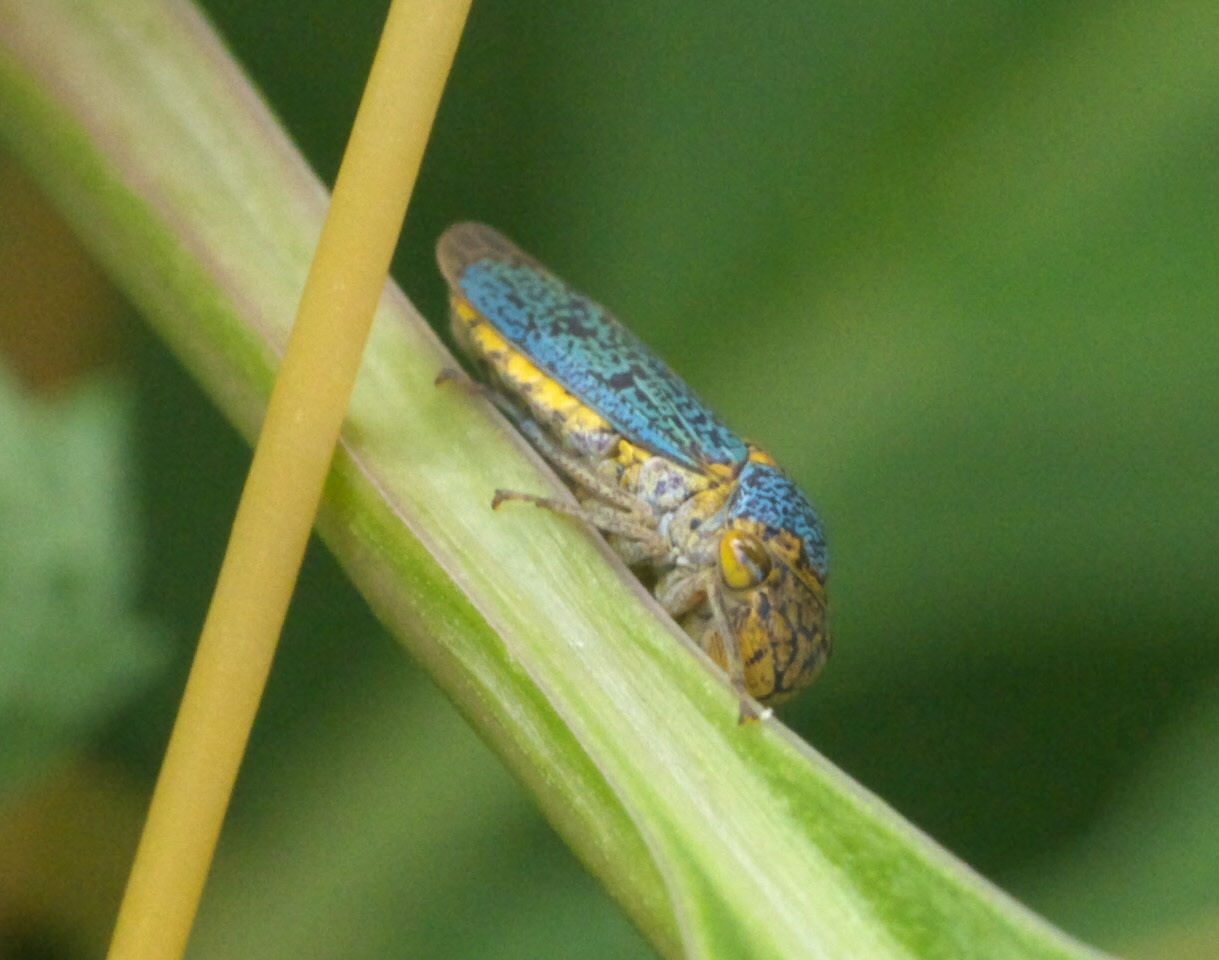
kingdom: Animalia
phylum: Arthropoda
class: Insecta
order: Hemiptera
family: Cicadellidae
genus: Oncometopia
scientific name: Oncometopia orbona
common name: Broad-headed sharpshooter
